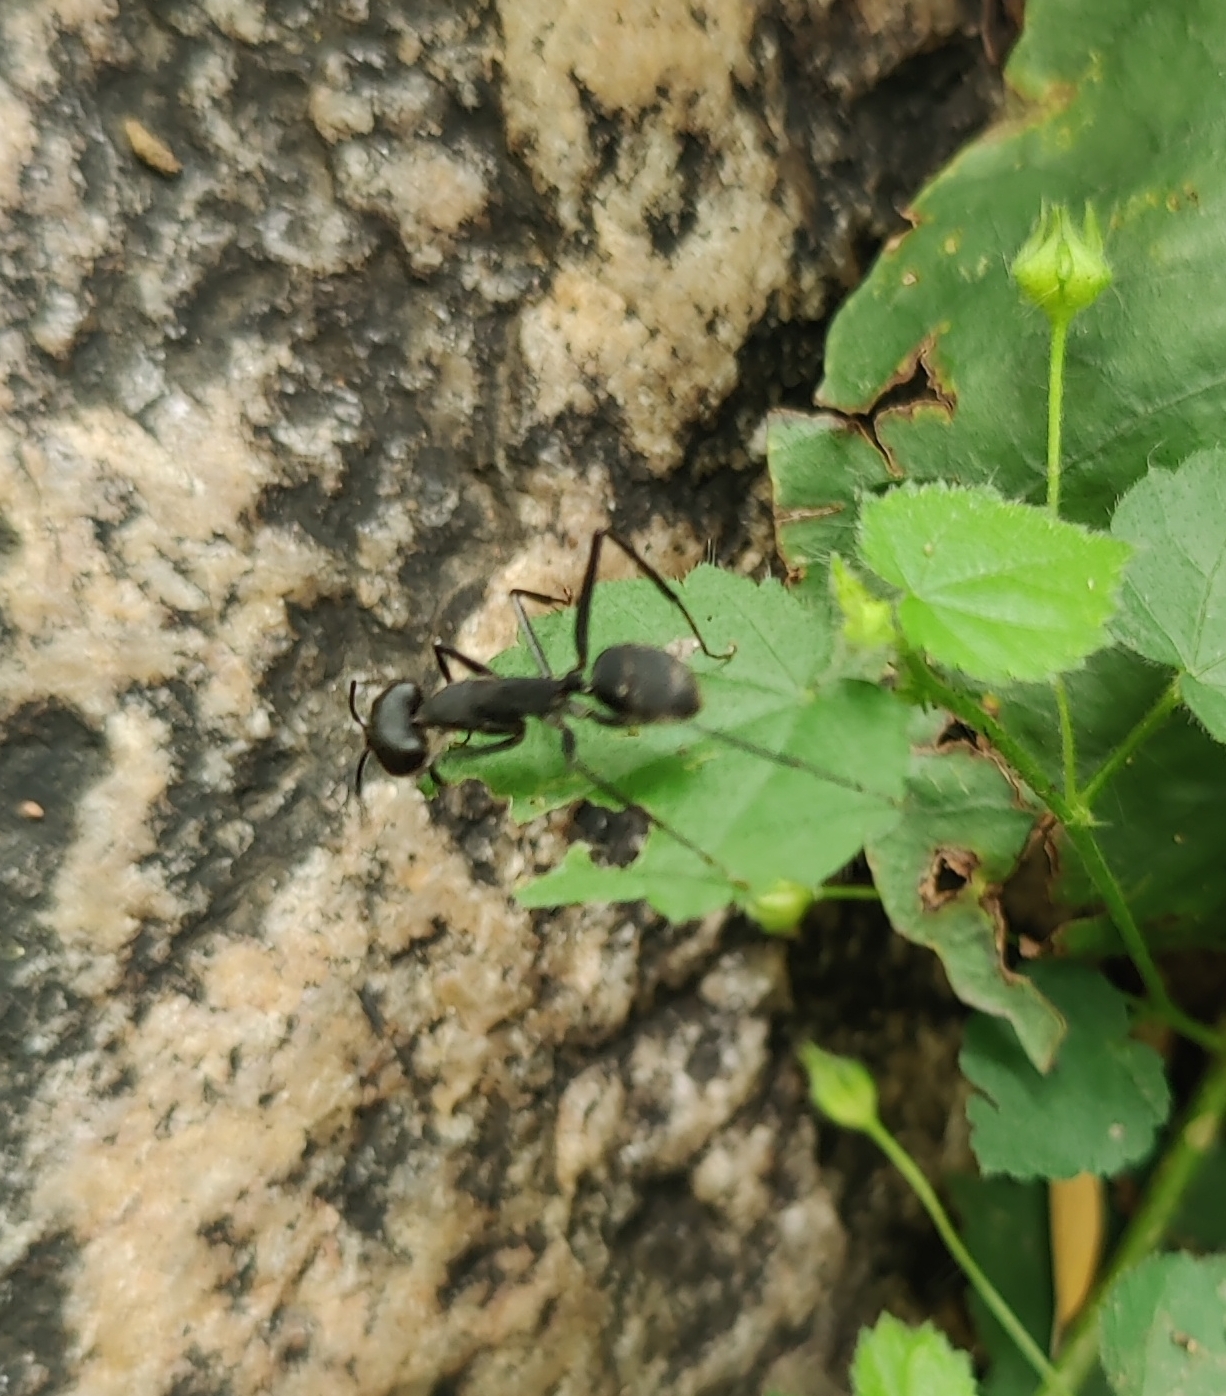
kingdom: Animalia
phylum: Arthropoda
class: Insecta
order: Hymenoptera
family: Formicidae
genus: Camponotus
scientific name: Camponotus angusticollis
